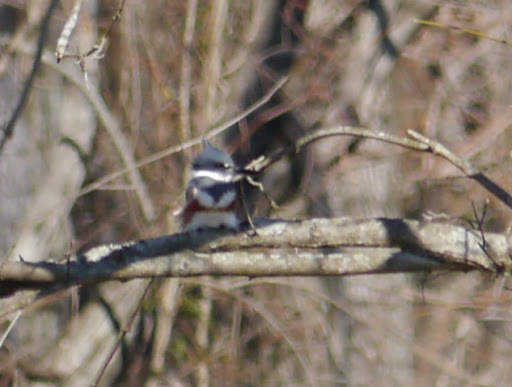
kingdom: Animalia
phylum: Chordata
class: Aves
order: Coraciiformes
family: Alcedinidae
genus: Megaceryle
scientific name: Megaceryle alcyon
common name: Belted kingfisher
